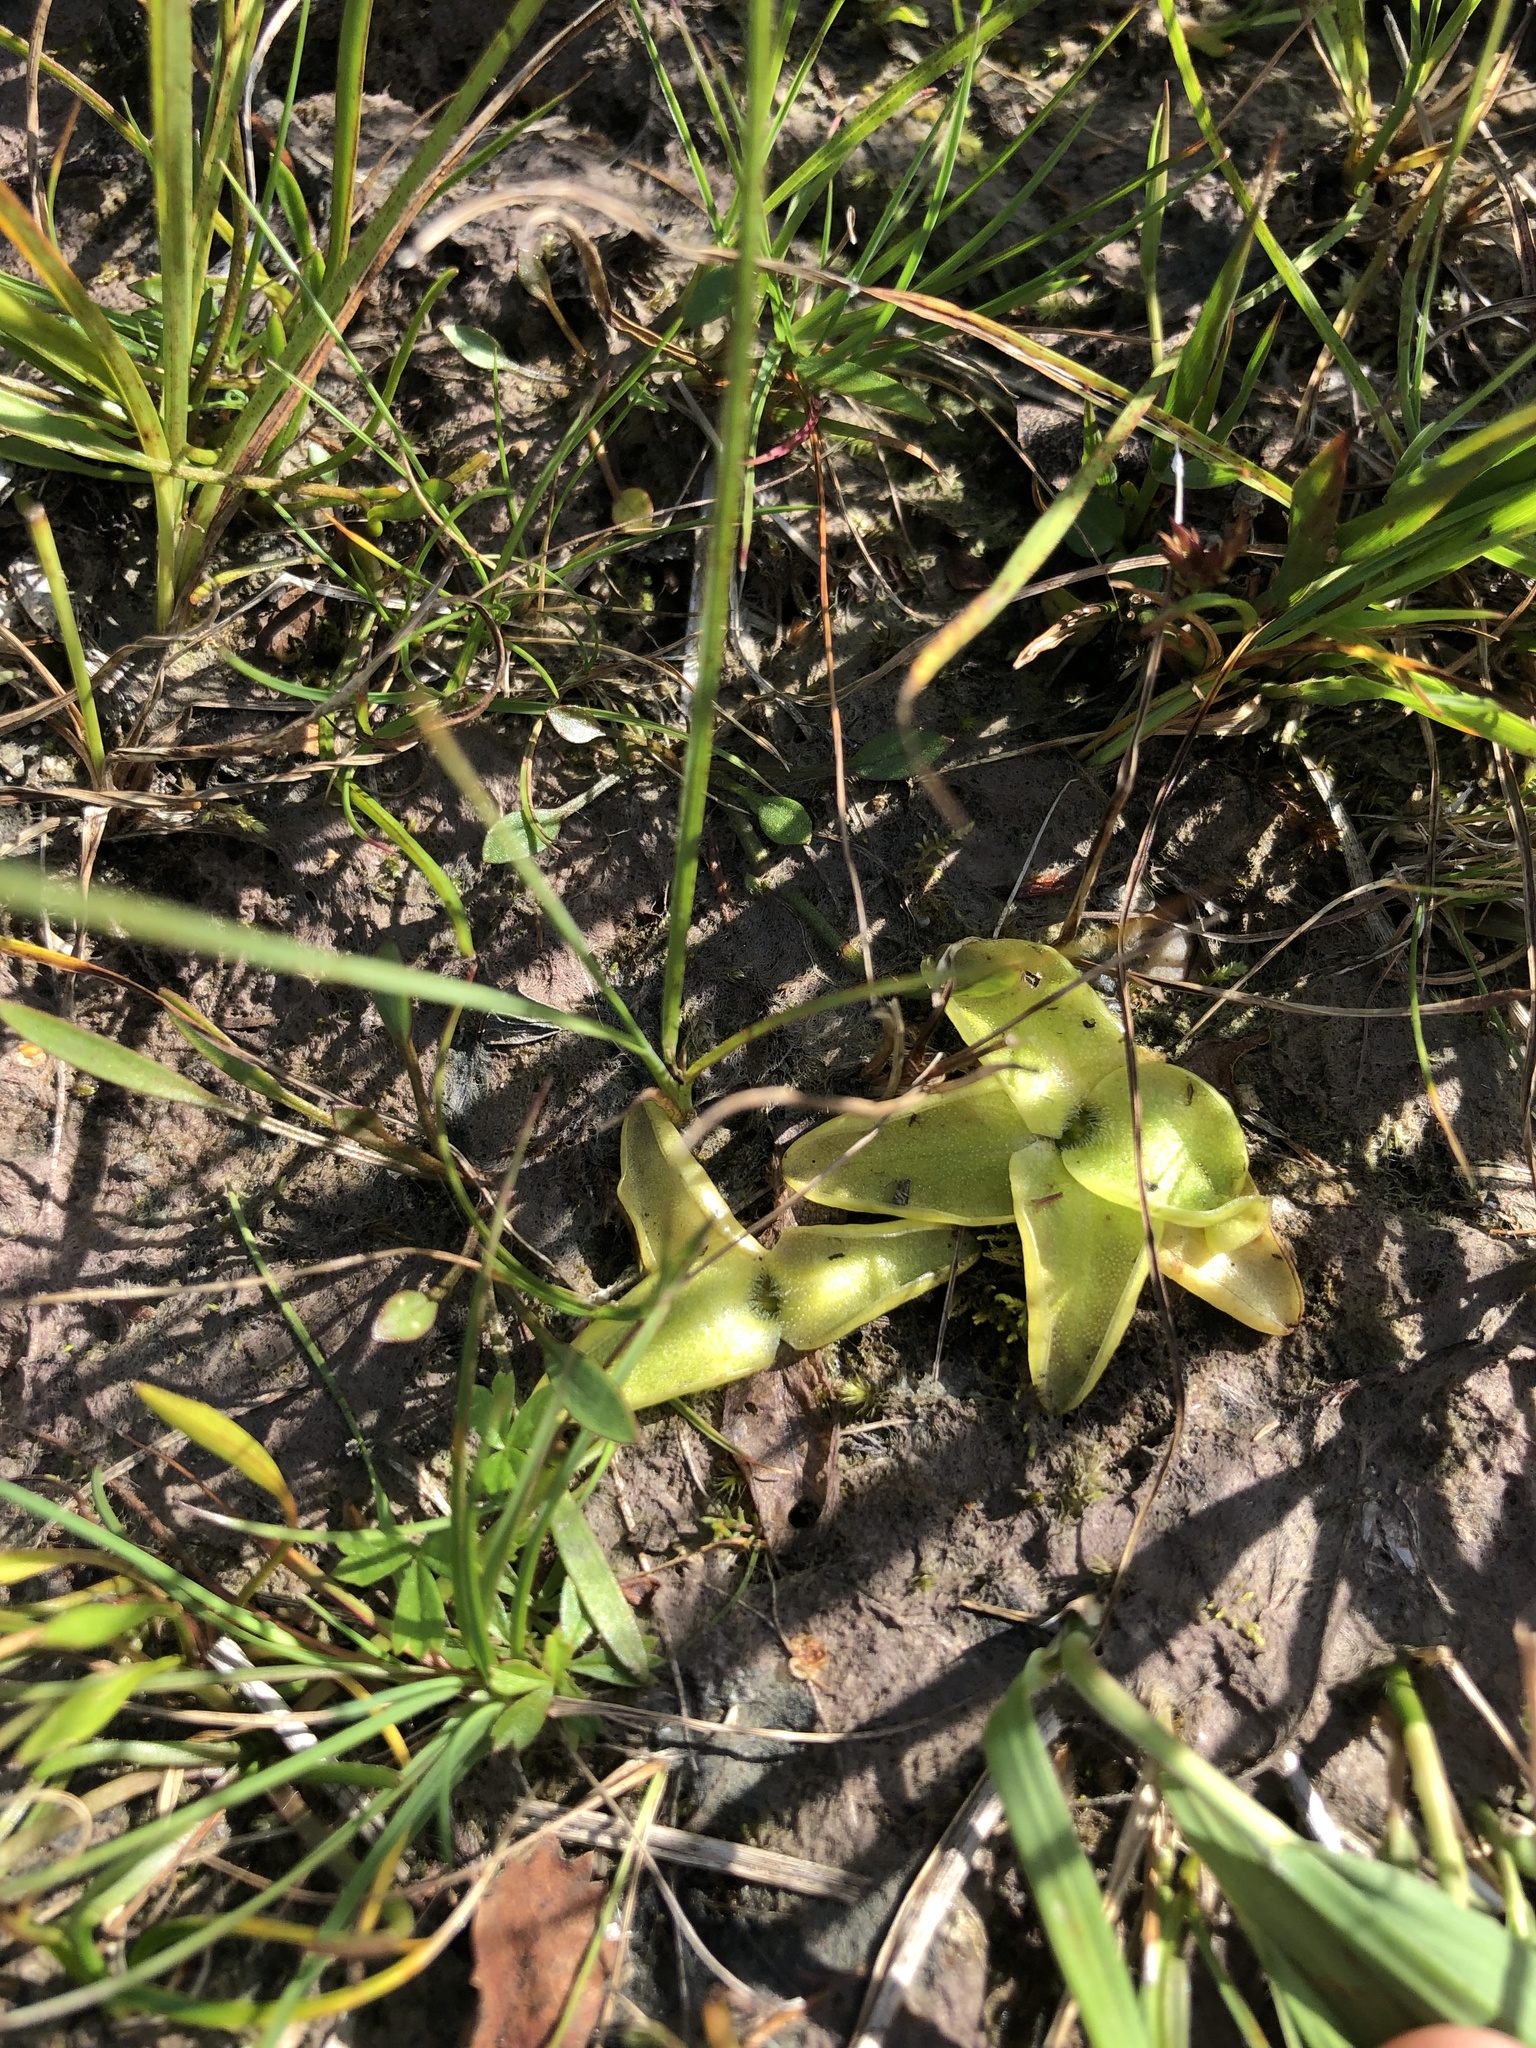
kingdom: Plantae
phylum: Tracheophyta
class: Magnoliopsida
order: Lamiales
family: Lentibulariaceae
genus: Pinguicula
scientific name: Pinguicula vulgaris
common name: Common butterwort
